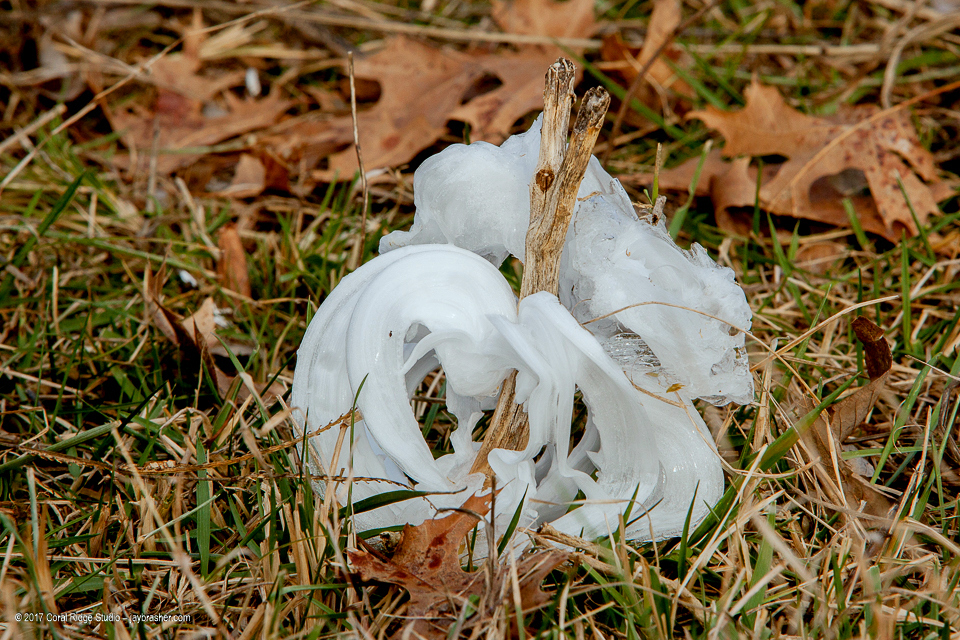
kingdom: Plantae
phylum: Tracheophyta
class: Magnoliopsida
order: Asterales
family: Asteraceae
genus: Verbesina
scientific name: Verbesina virginica
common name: Frostweed
